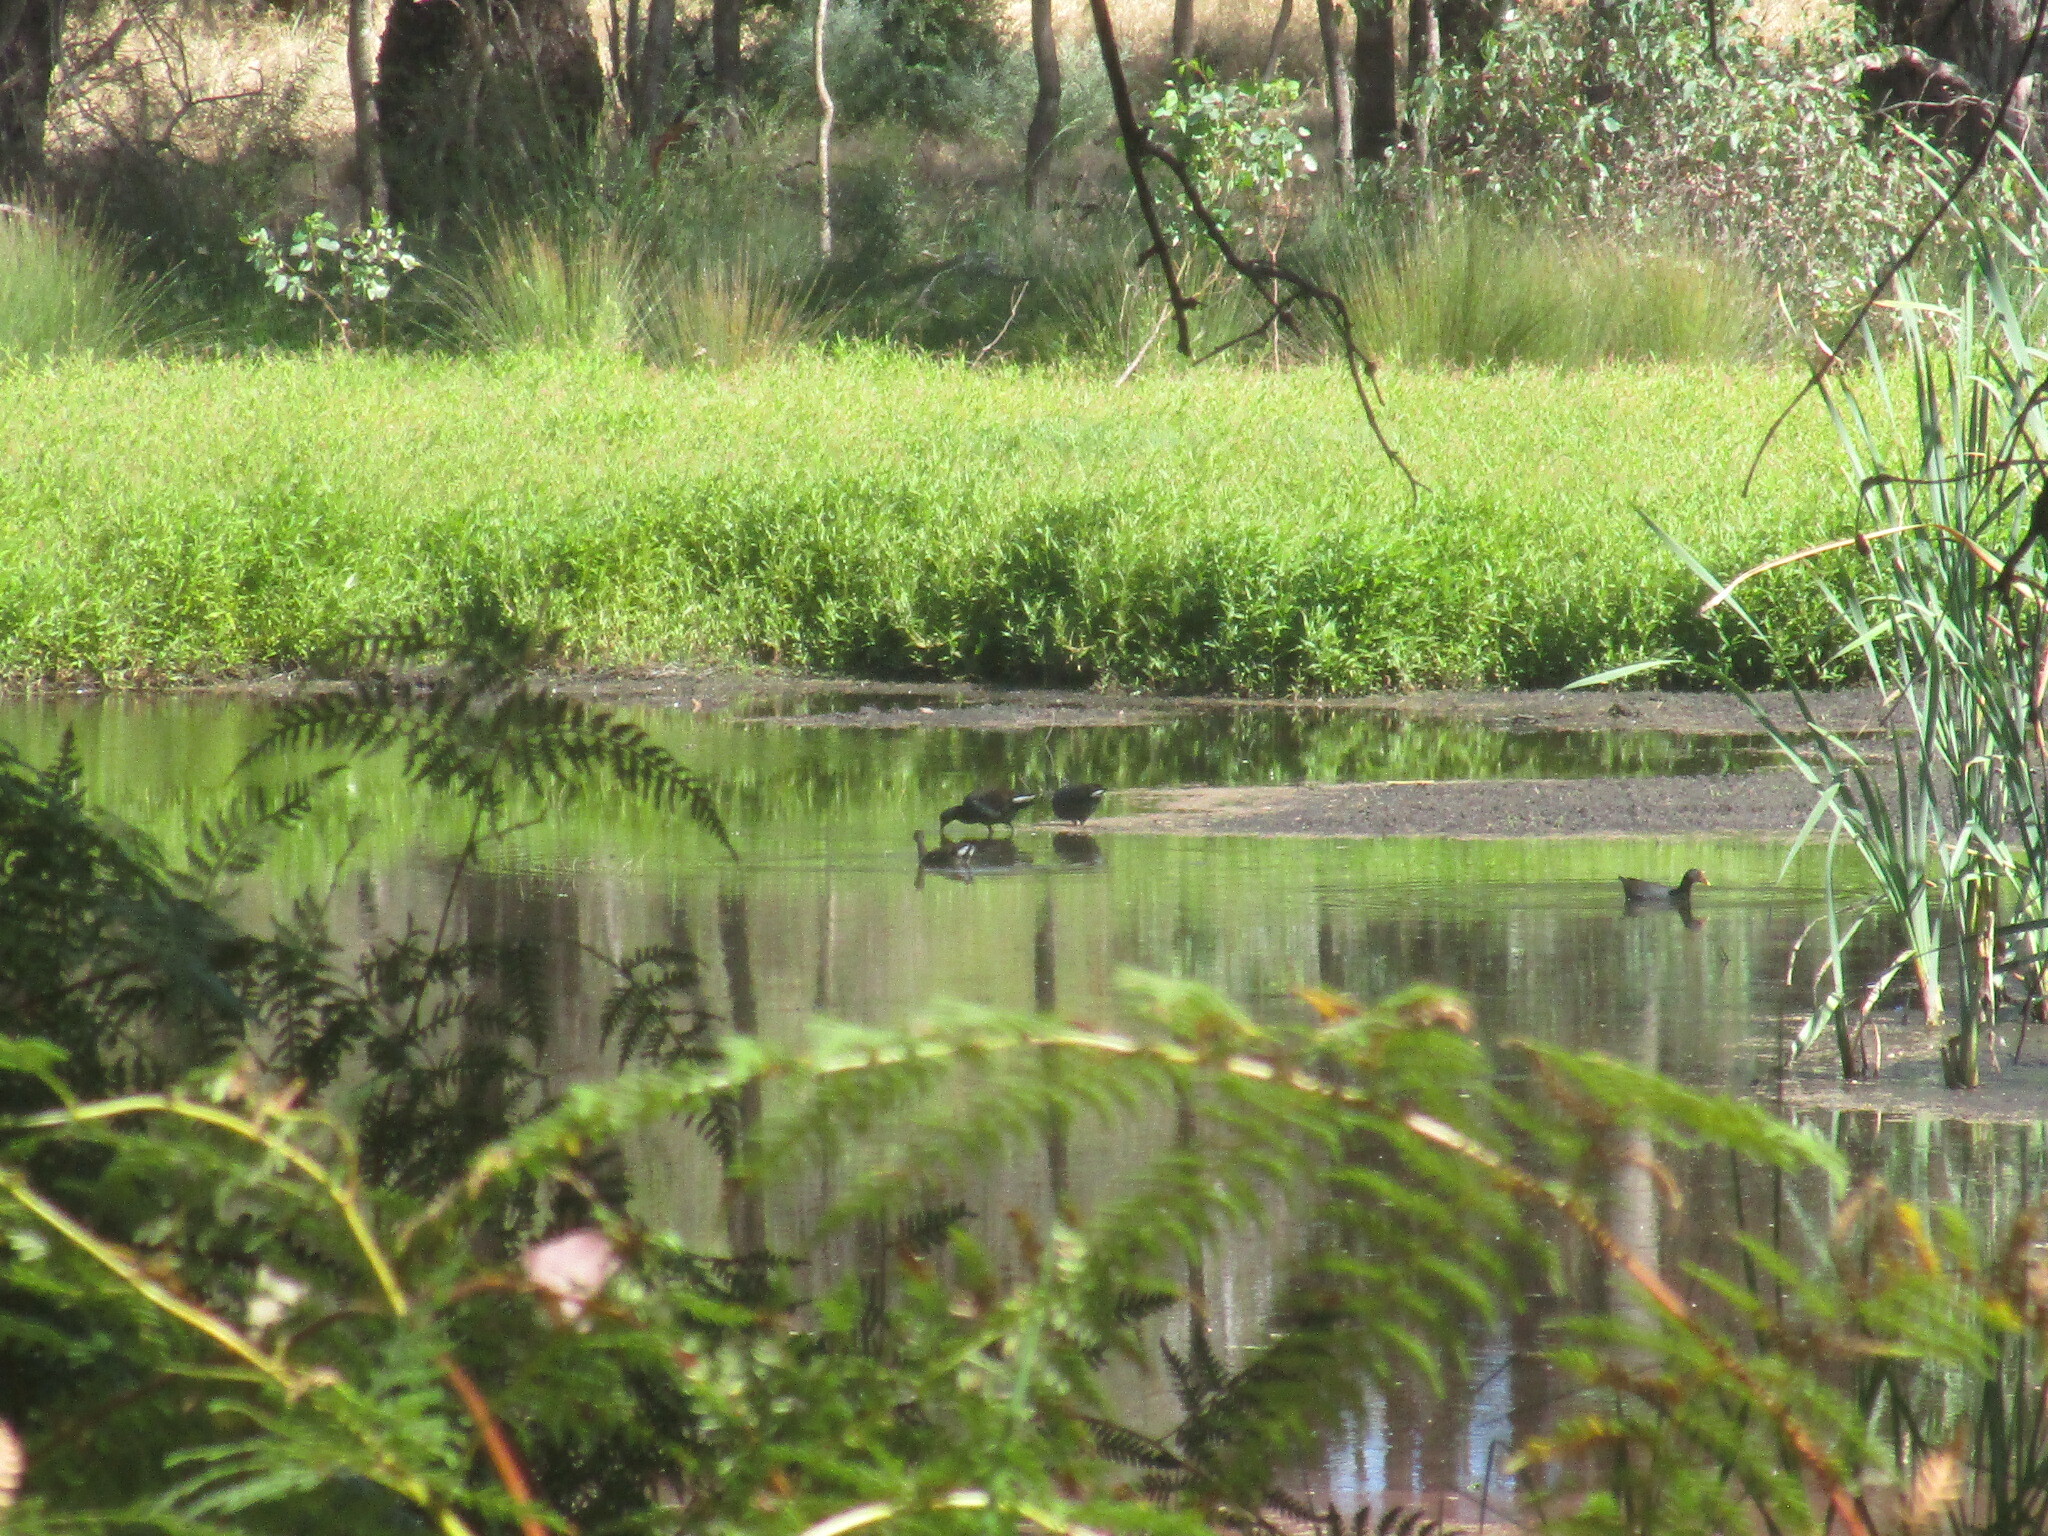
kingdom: Animalia
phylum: Chordata
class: Aves
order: Gruiformes
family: Rallidae
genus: Gallinula
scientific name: Gallinula tenebrosa
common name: Dusky moorhen
